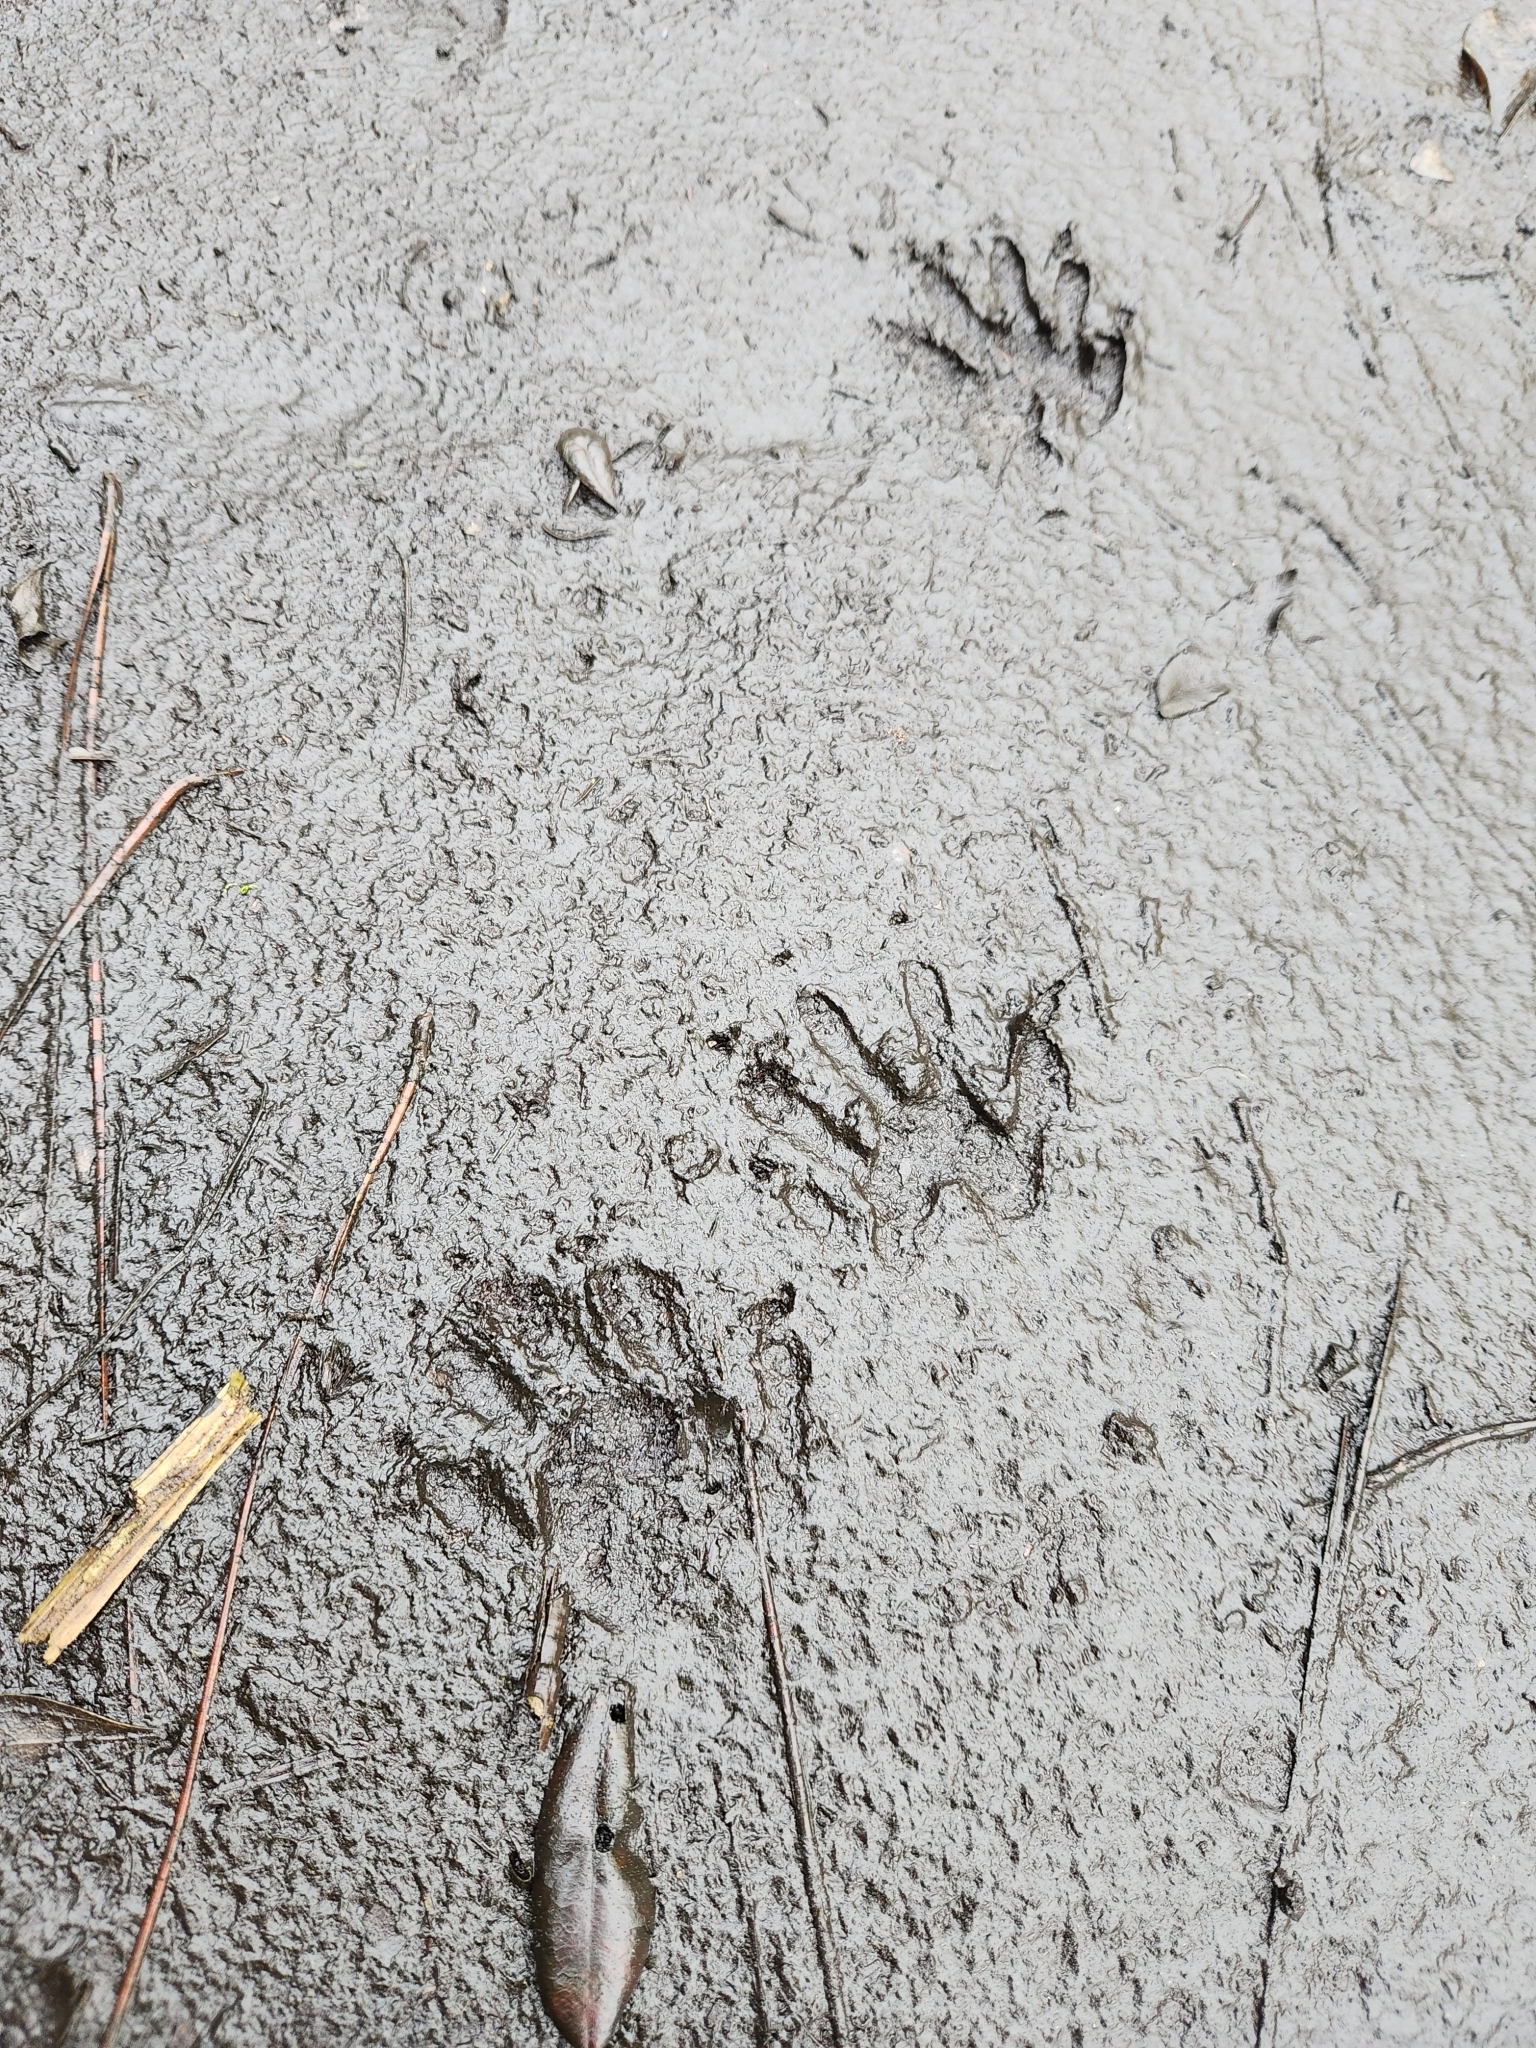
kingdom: Animalia
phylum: Chordata
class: Mammalia
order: Carnivora
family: Procyonidae
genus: Procyon
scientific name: Procyon lotor
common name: Raccoon
